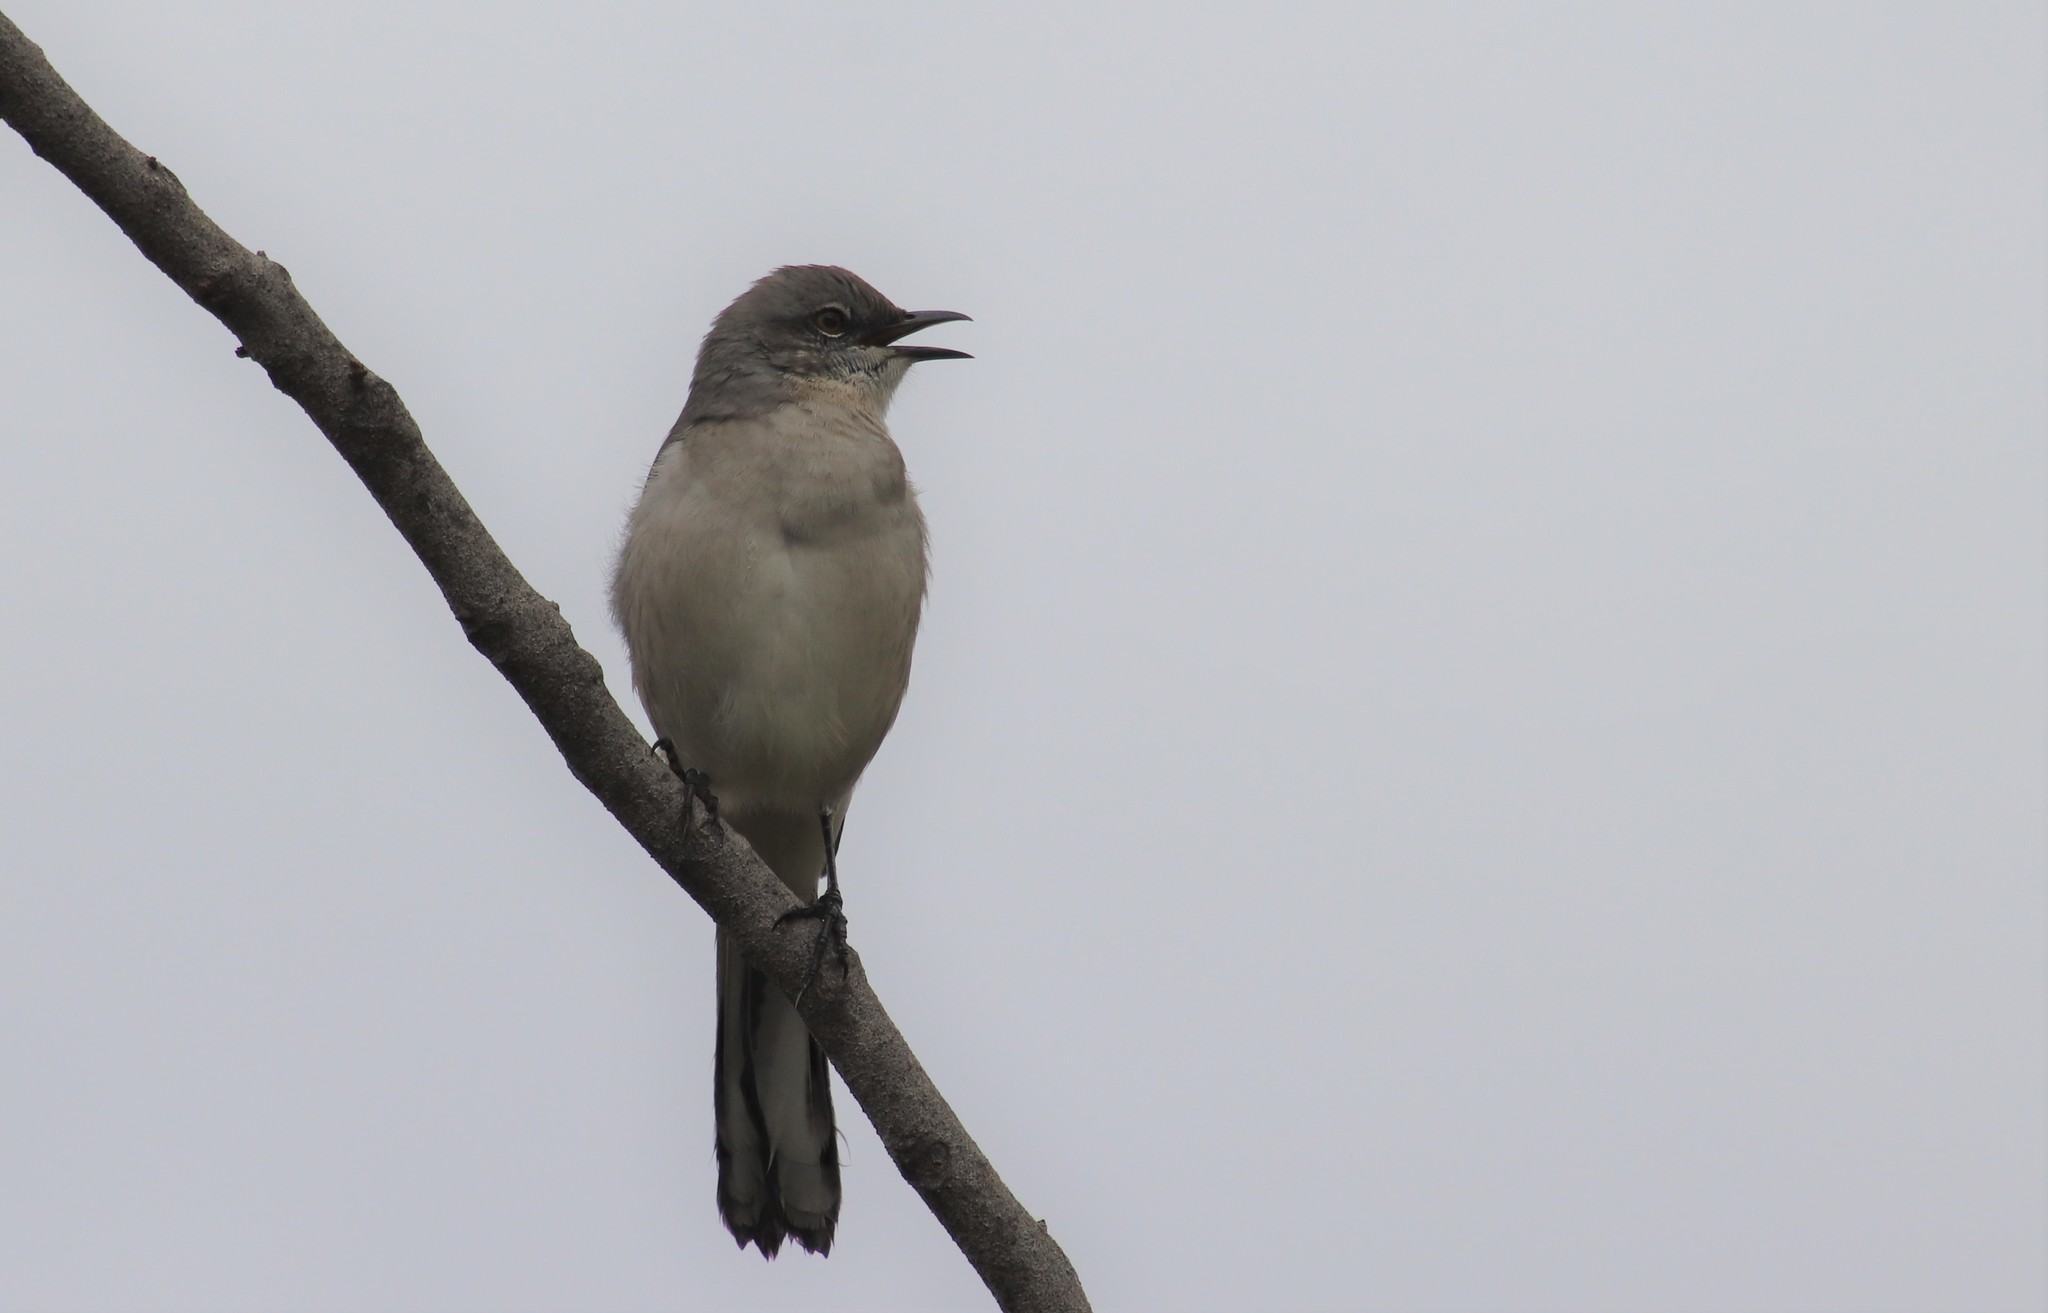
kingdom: Animalia
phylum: Chordata
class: Aves
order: Passeriformes
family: Mimidae
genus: Mimus
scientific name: Mimus polyglottos
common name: Northern mockingbird
